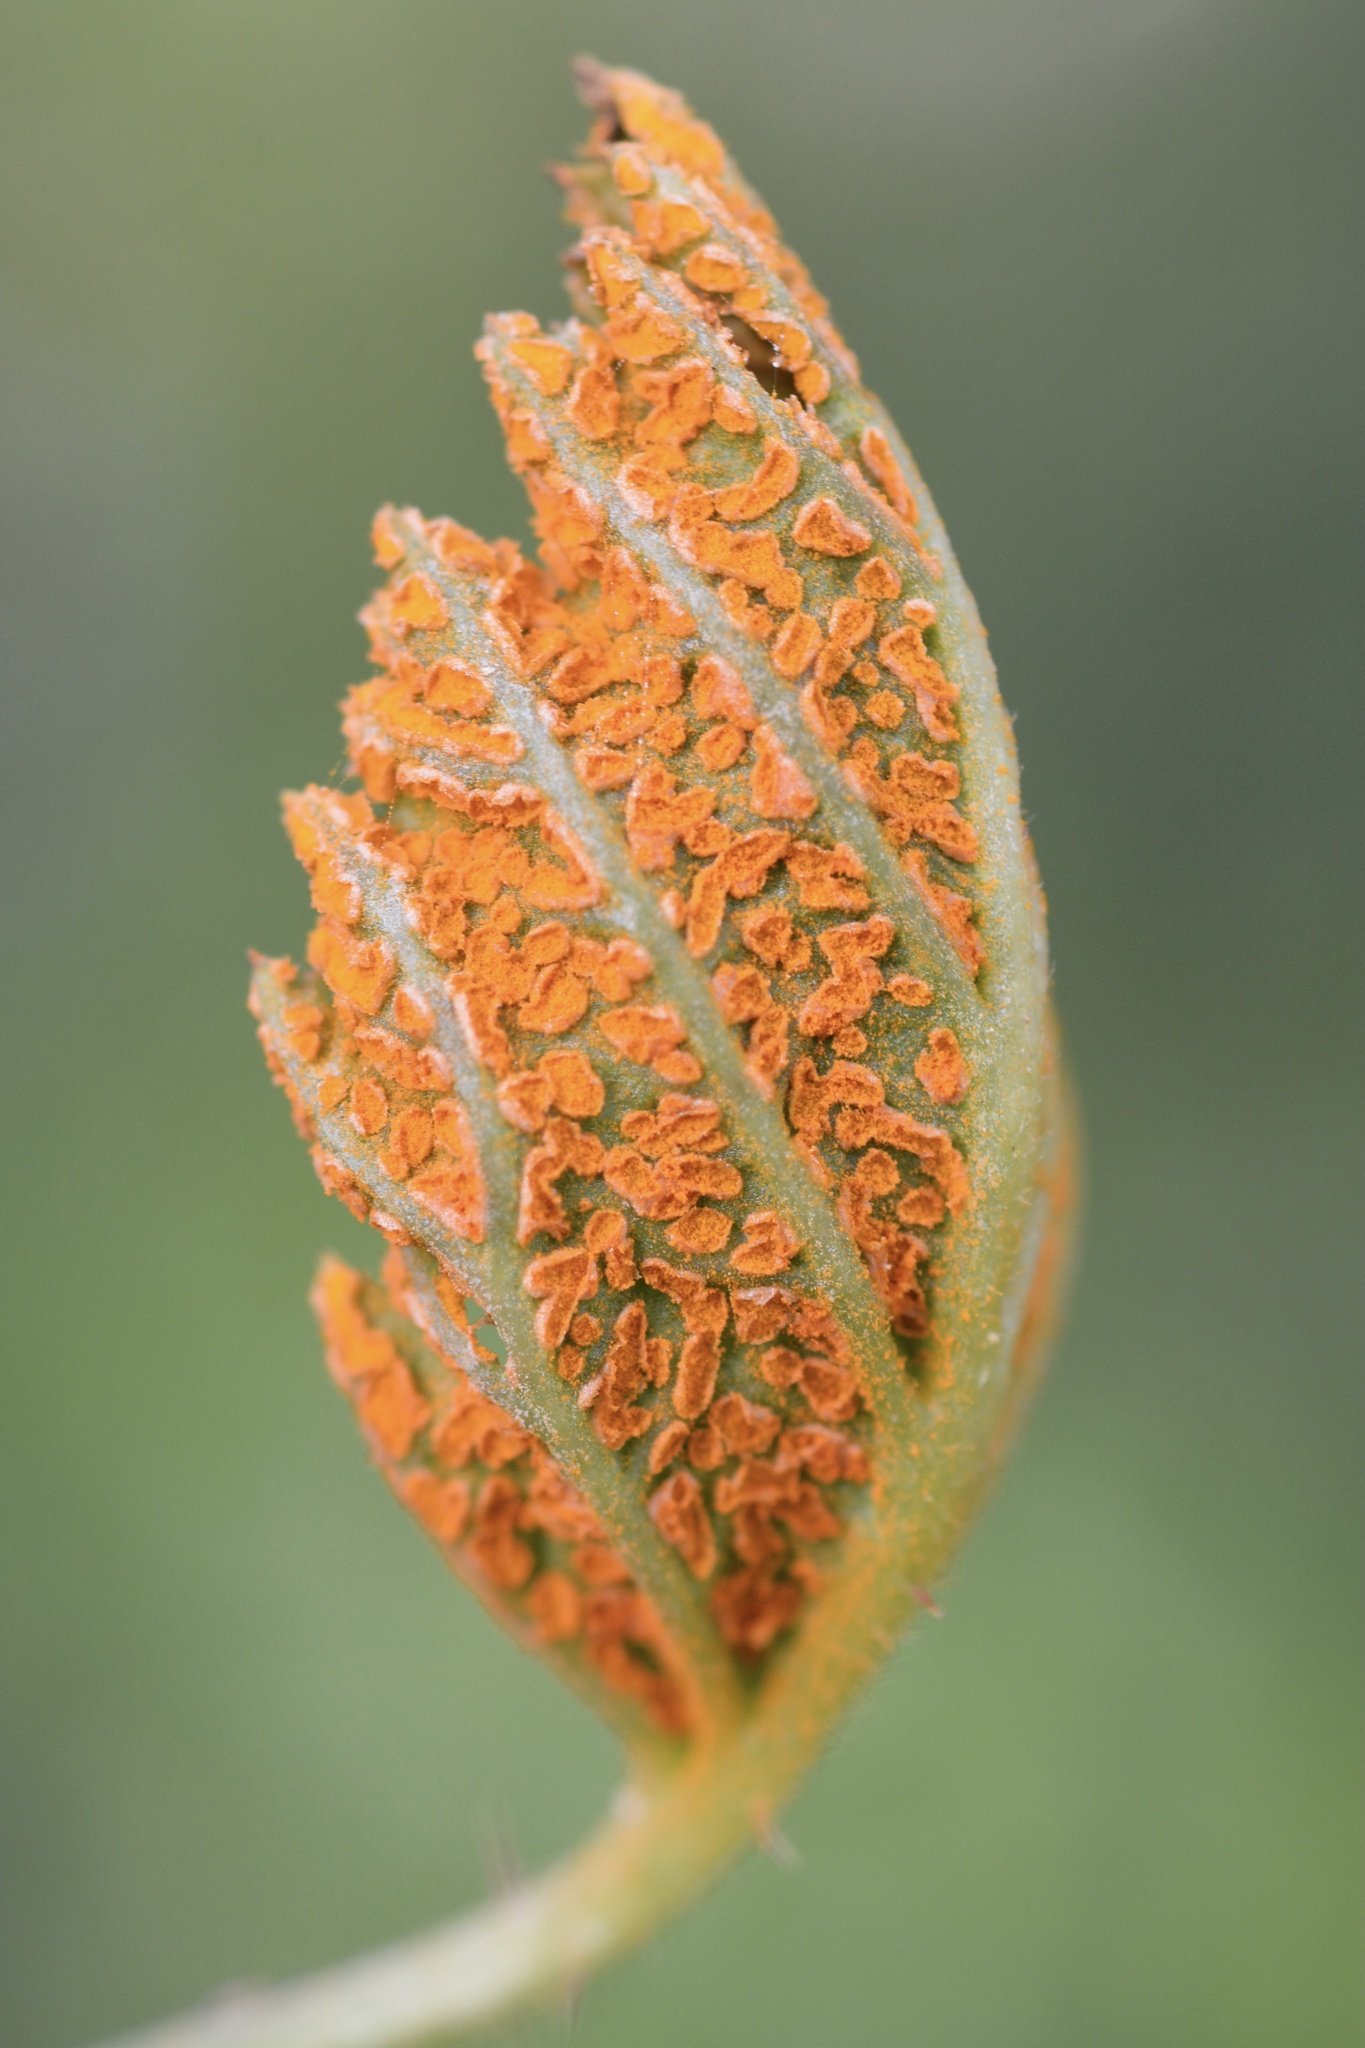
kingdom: Fungi
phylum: Basidiomycota
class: Pucciniomycetes
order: Pucciniales
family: Phragmidiaceae
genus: Arthuriomyces
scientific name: Arthuriomyces peckianus
